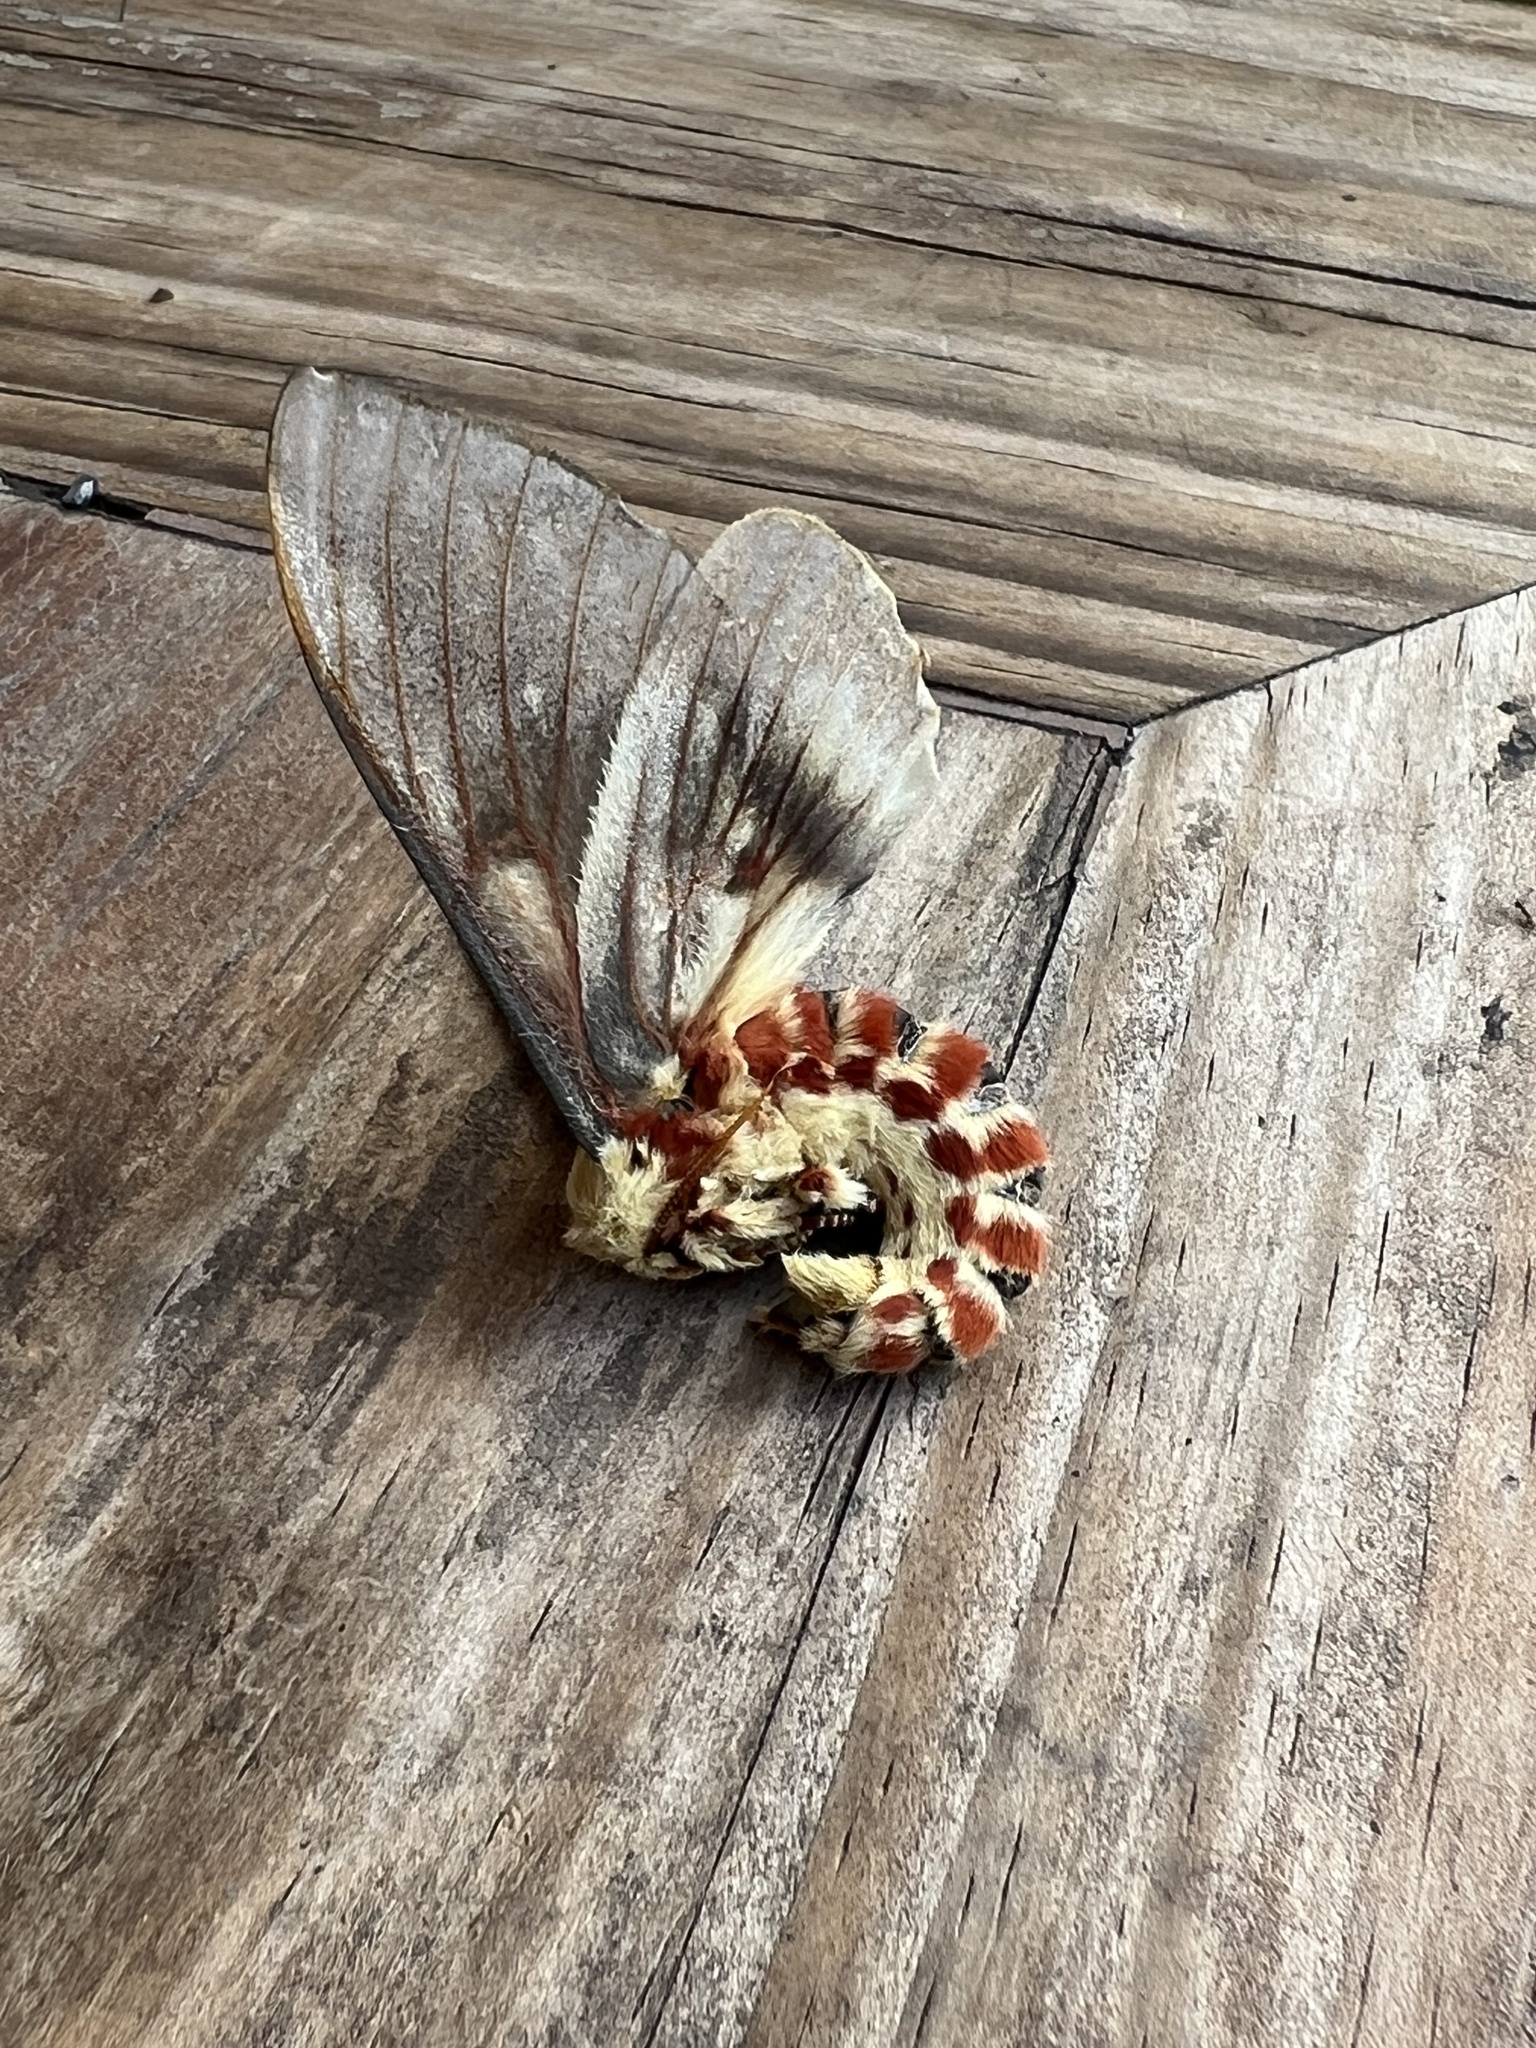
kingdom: Animalia
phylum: Arthropoda
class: Insecta
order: Lepidoptera
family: Saturniidae
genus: Citheronia
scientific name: Citheronia guayaquila
